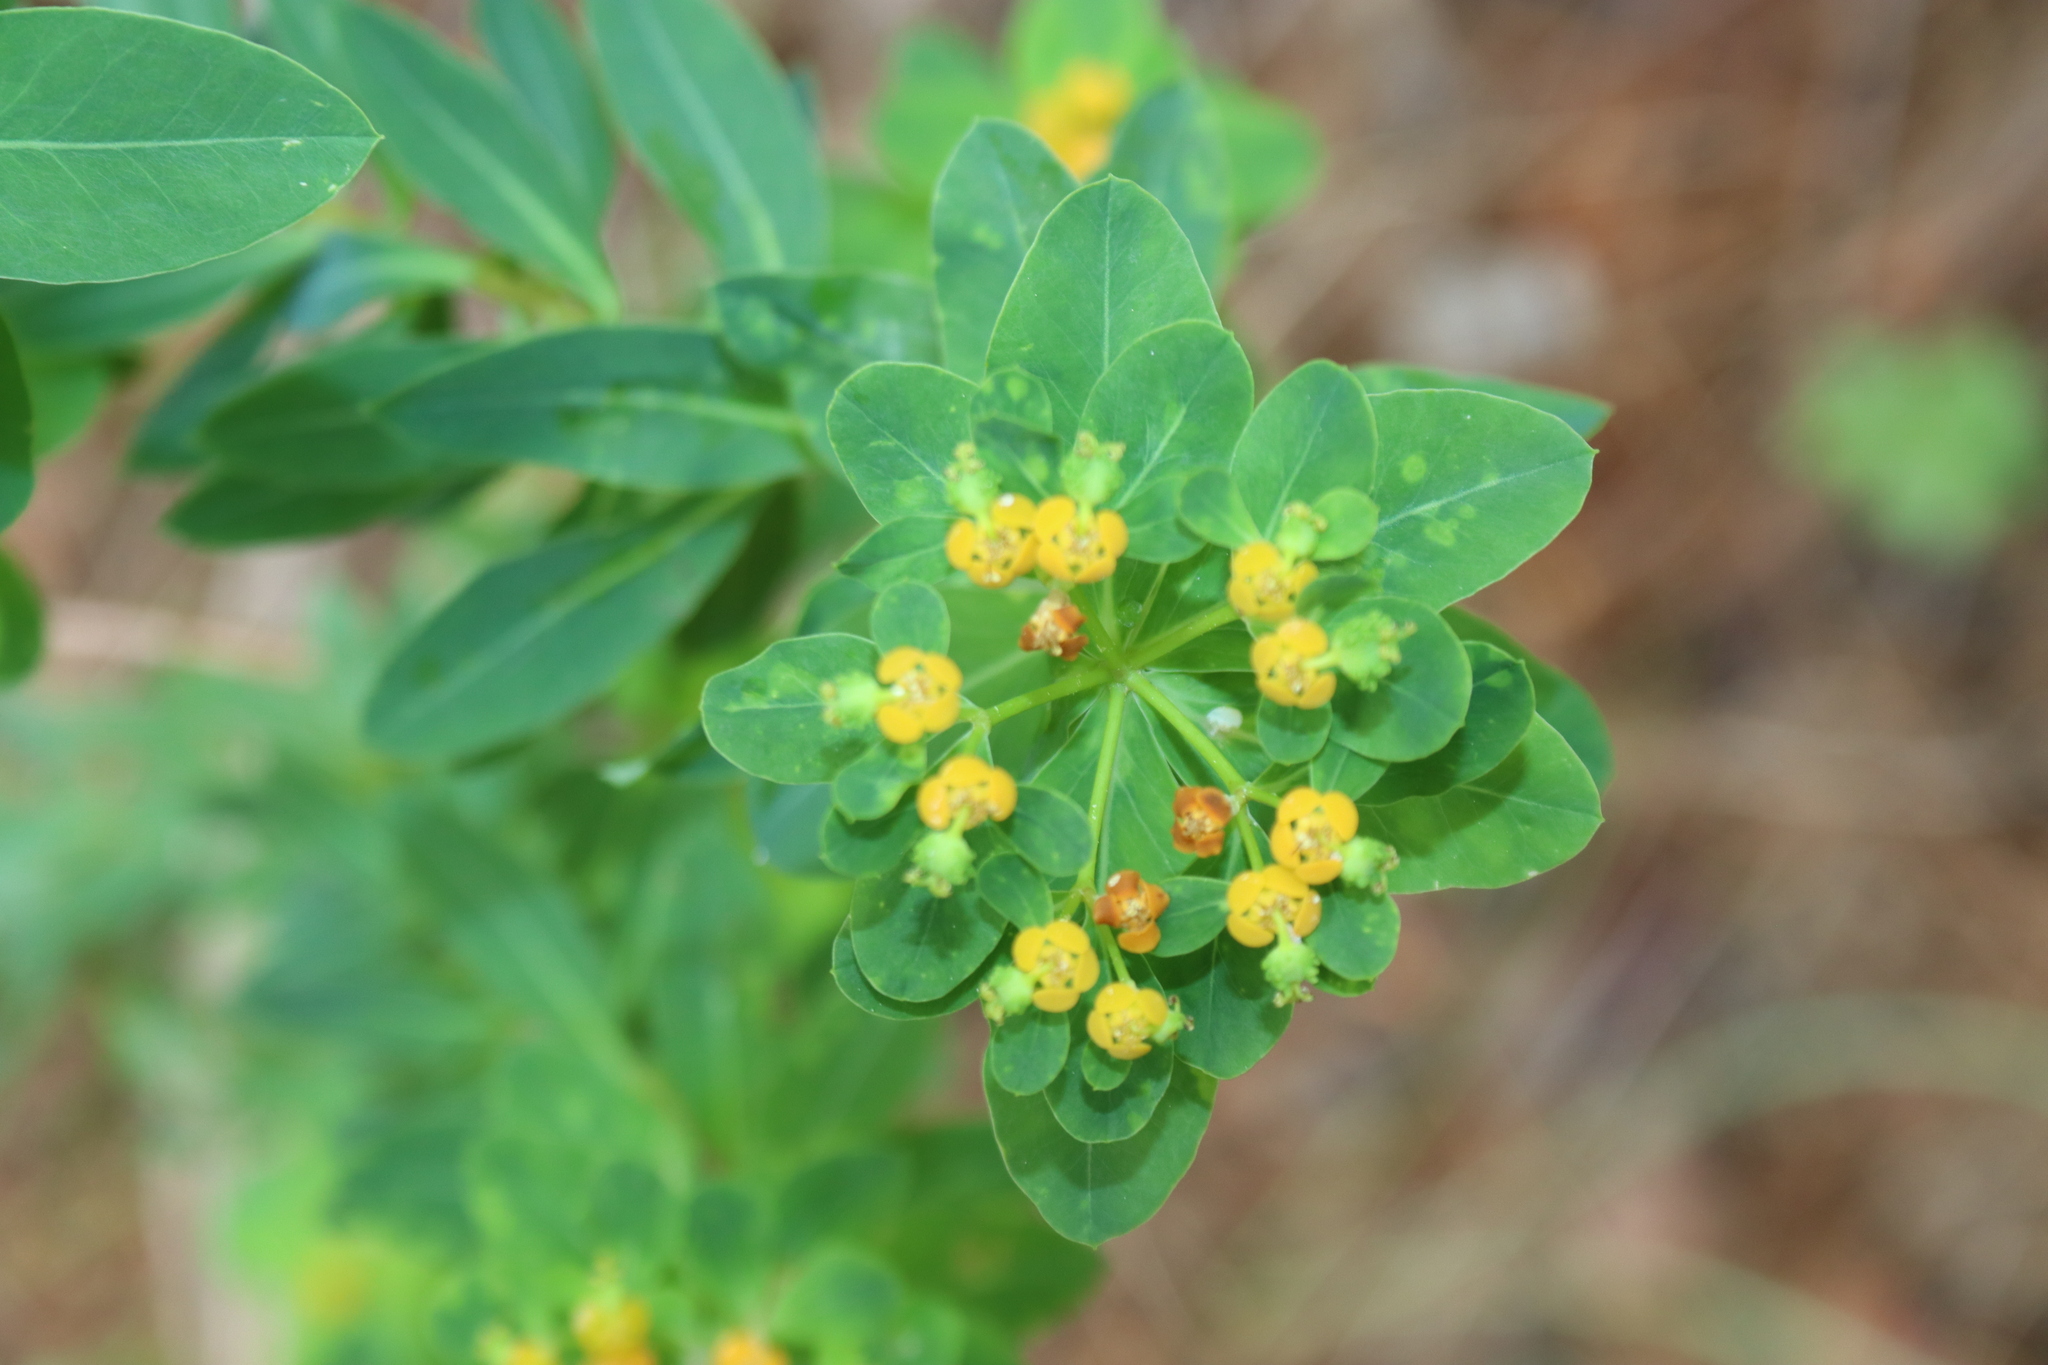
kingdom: Plantae
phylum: Tracheophyta
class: Magnoliopsida
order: Malpighiales
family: Euphorbiaceae
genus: Euphorbia
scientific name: Euphorbia hierosolymitana
